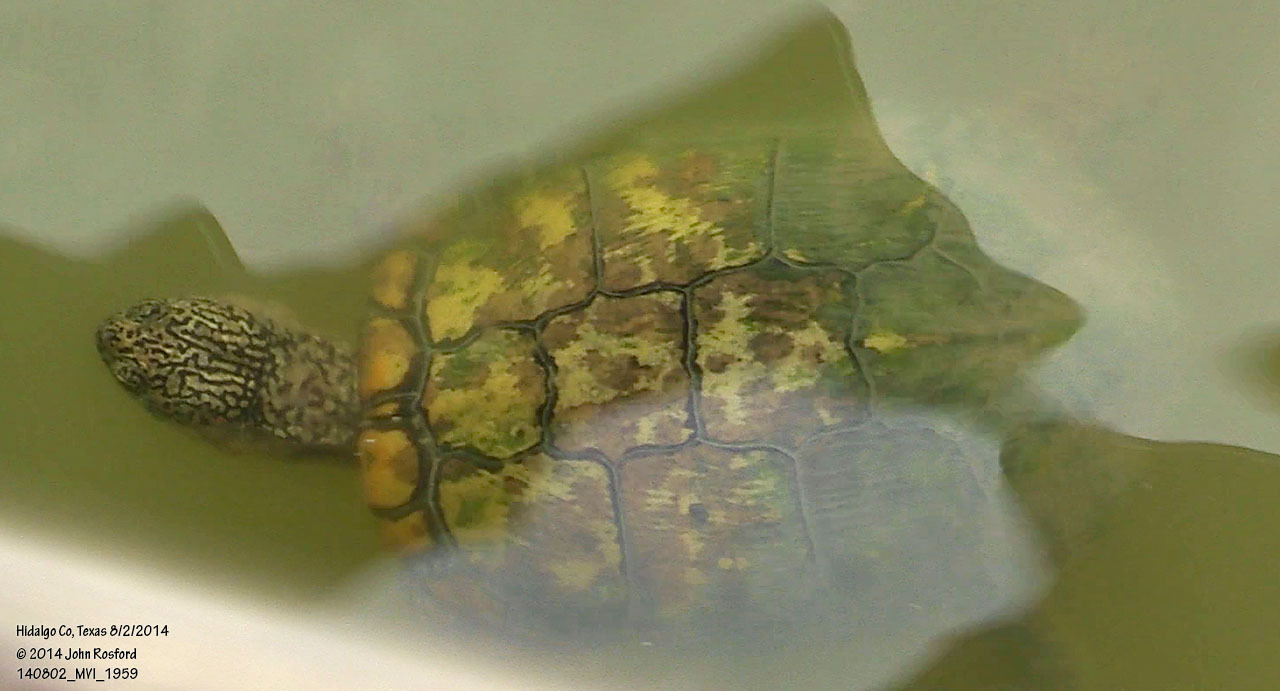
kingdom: Animalia
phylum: Chordata
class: Testudines
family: Emydidae
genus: Trachemys
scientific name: Trachemys scripta
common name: Slider
